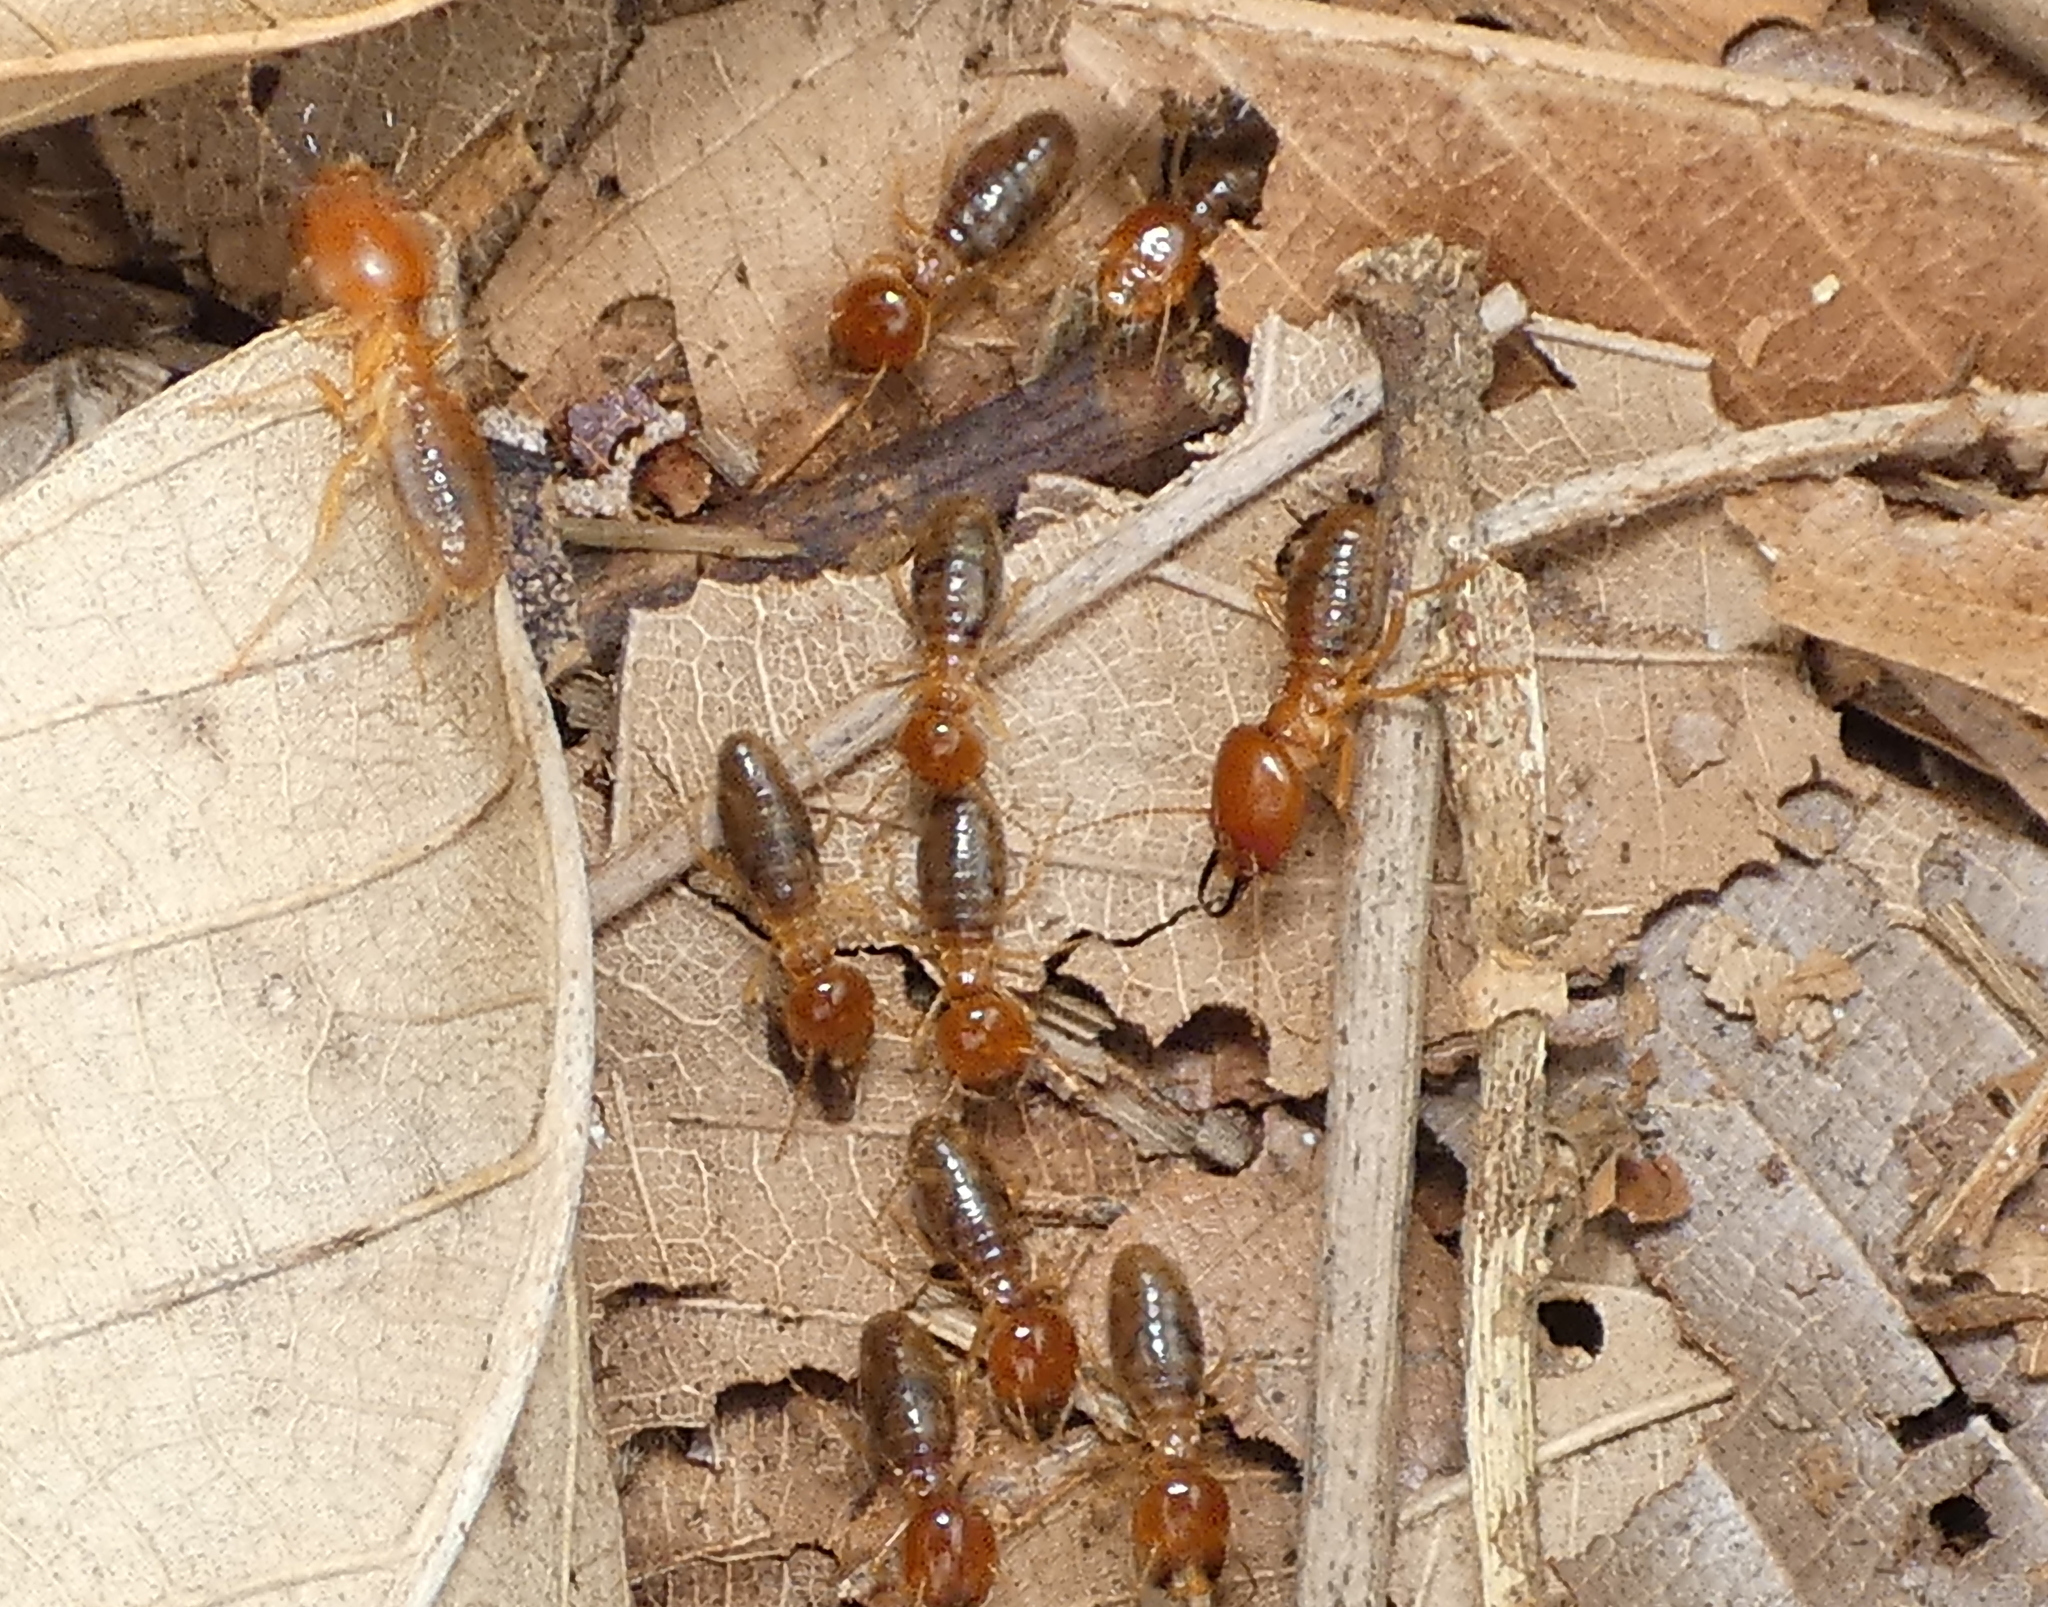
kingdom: Animalia
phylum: Arthropoda
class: Insecta
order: Blattodea
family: Termitidae
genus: Syntermes
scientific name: Syntermes molestus
